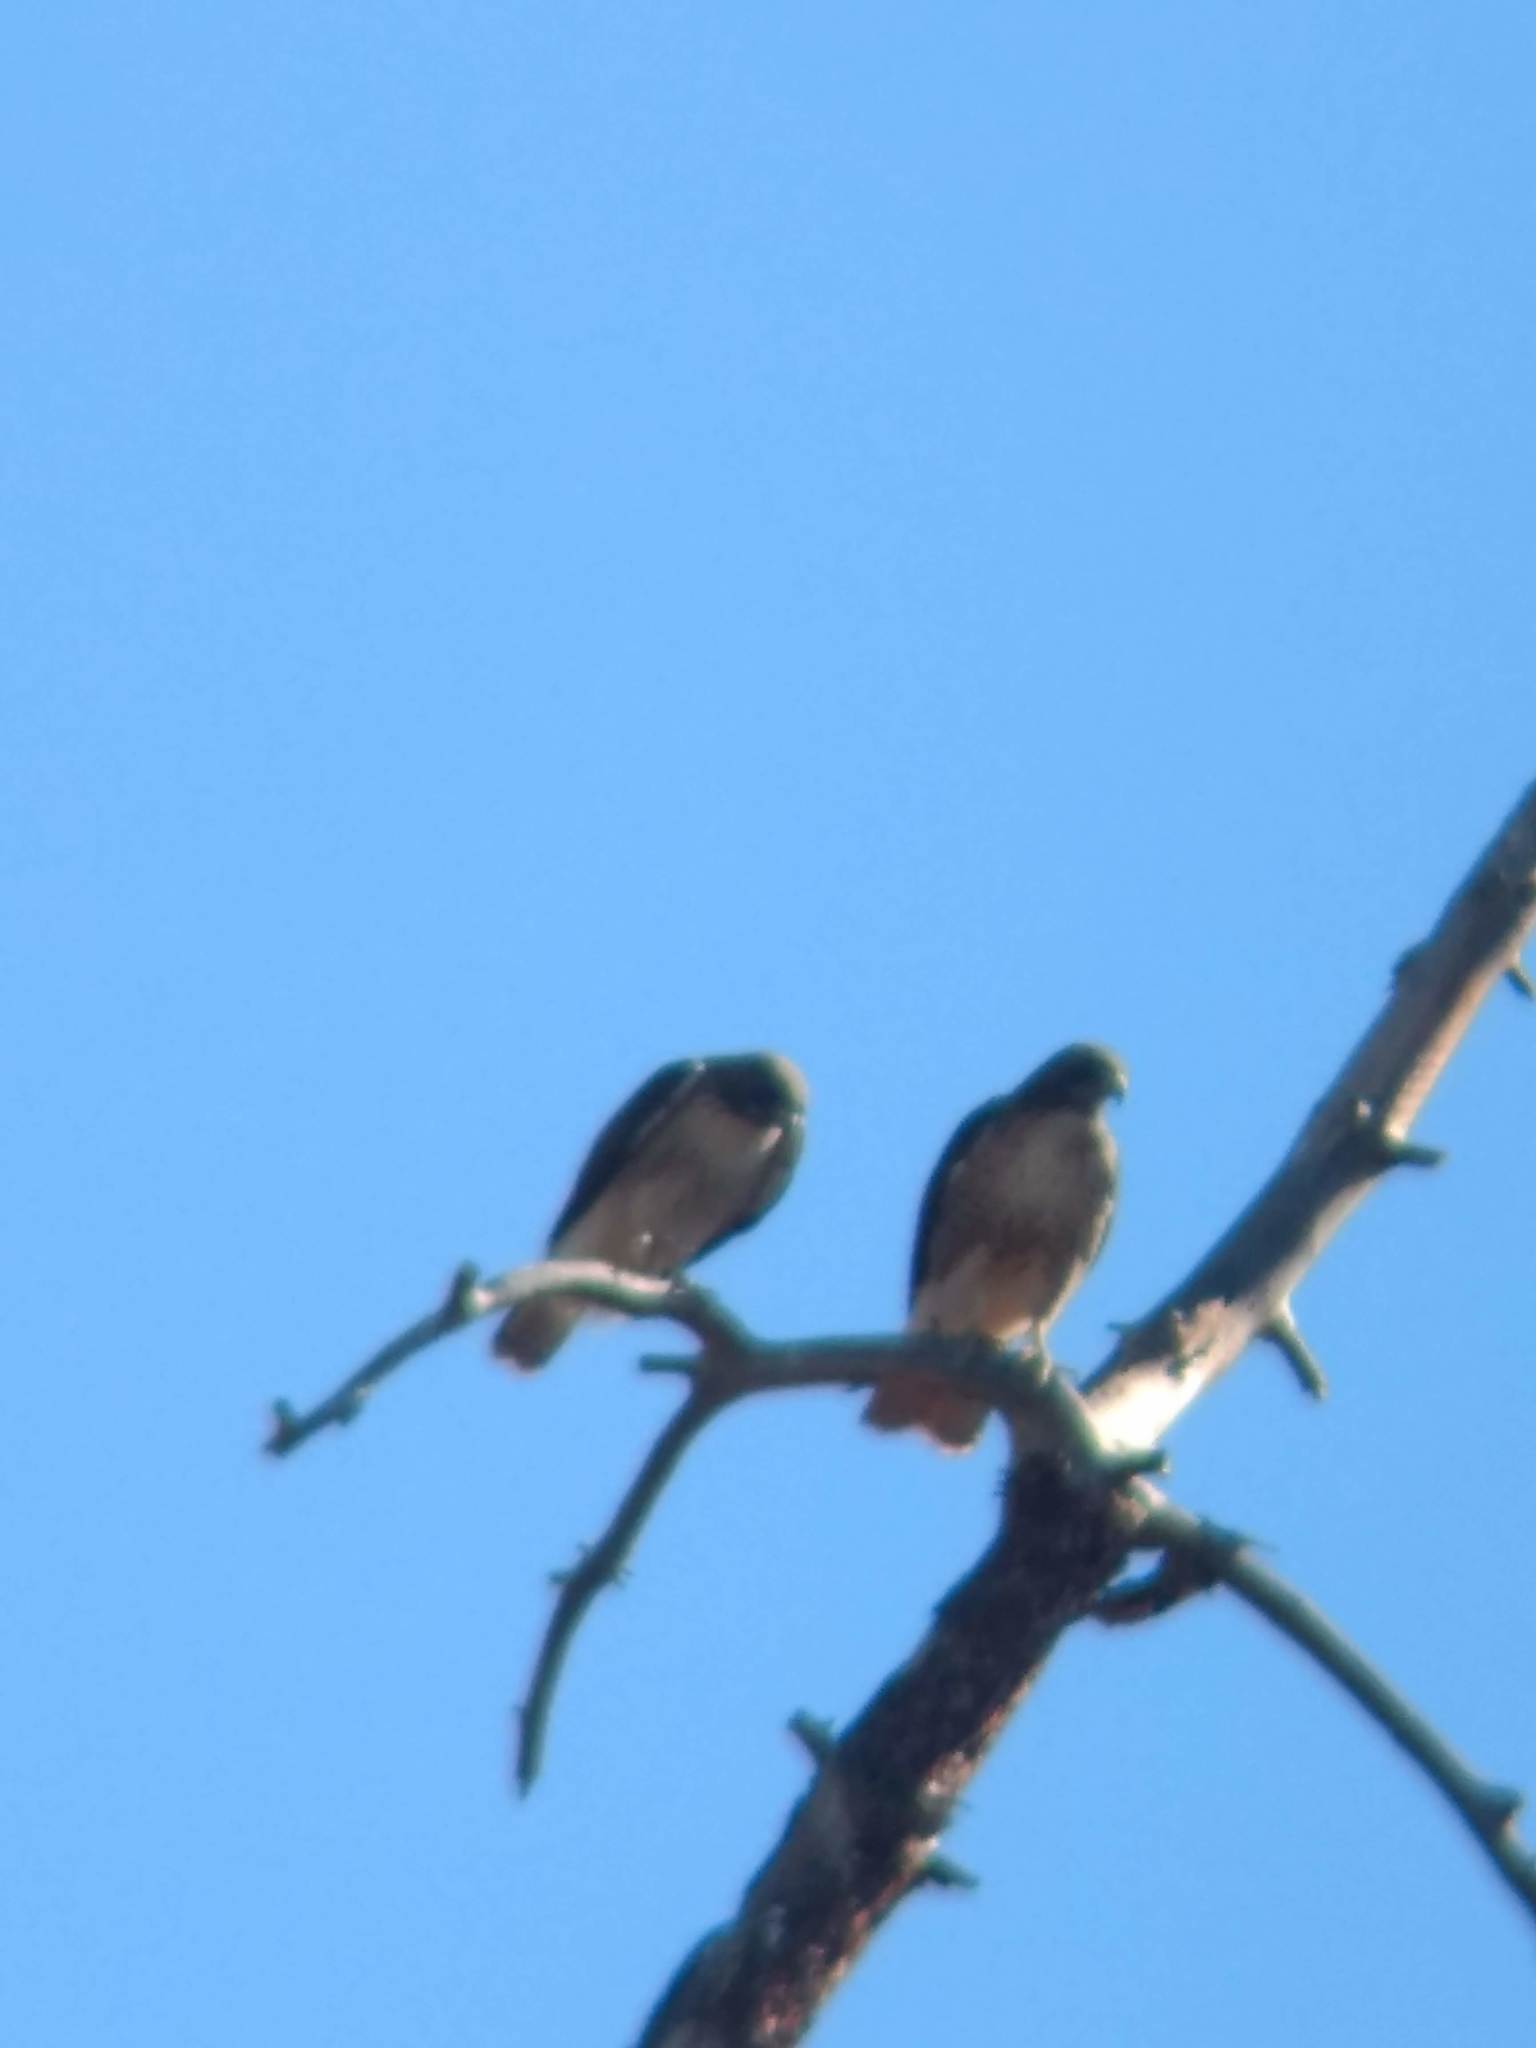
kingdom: Animalia
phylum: Chordata
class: Aves
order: Accipitriformes
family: Accipitridae
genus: Buteo
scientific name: Buteo jamaicensis
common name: Red-tailed hawk
